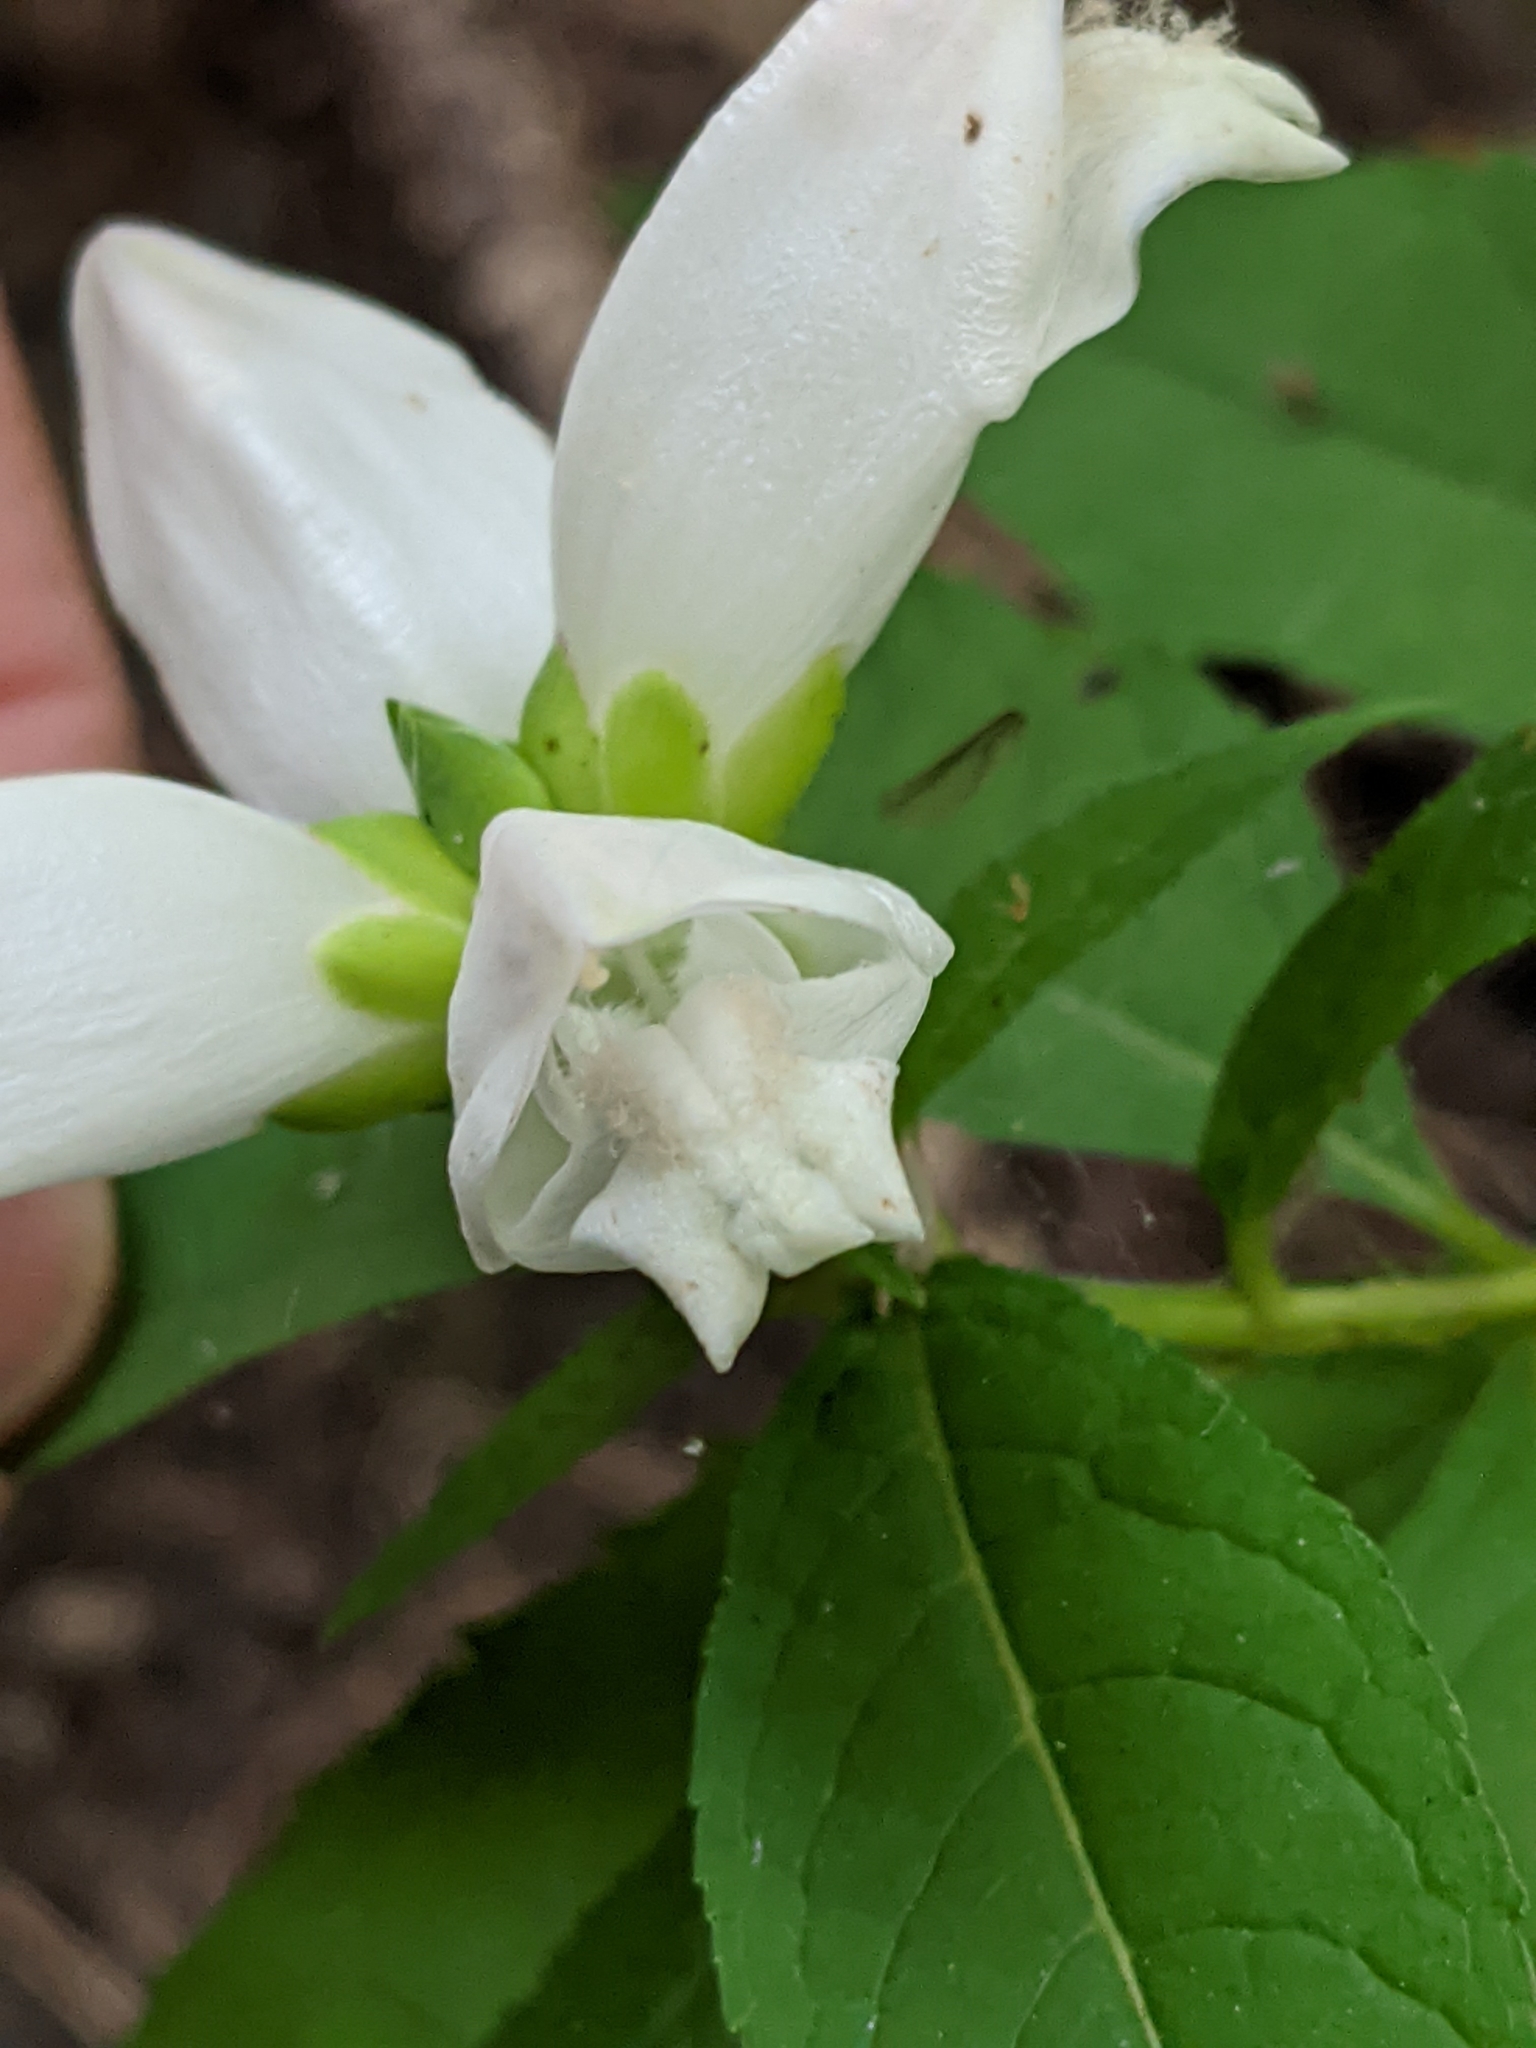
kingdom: Plantae
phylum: Tracheophyta
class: Magnoliopsida
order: Lamiales
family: Plantaginaceae
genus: Chelone
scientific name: Chelone glabra
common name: Snakehead
